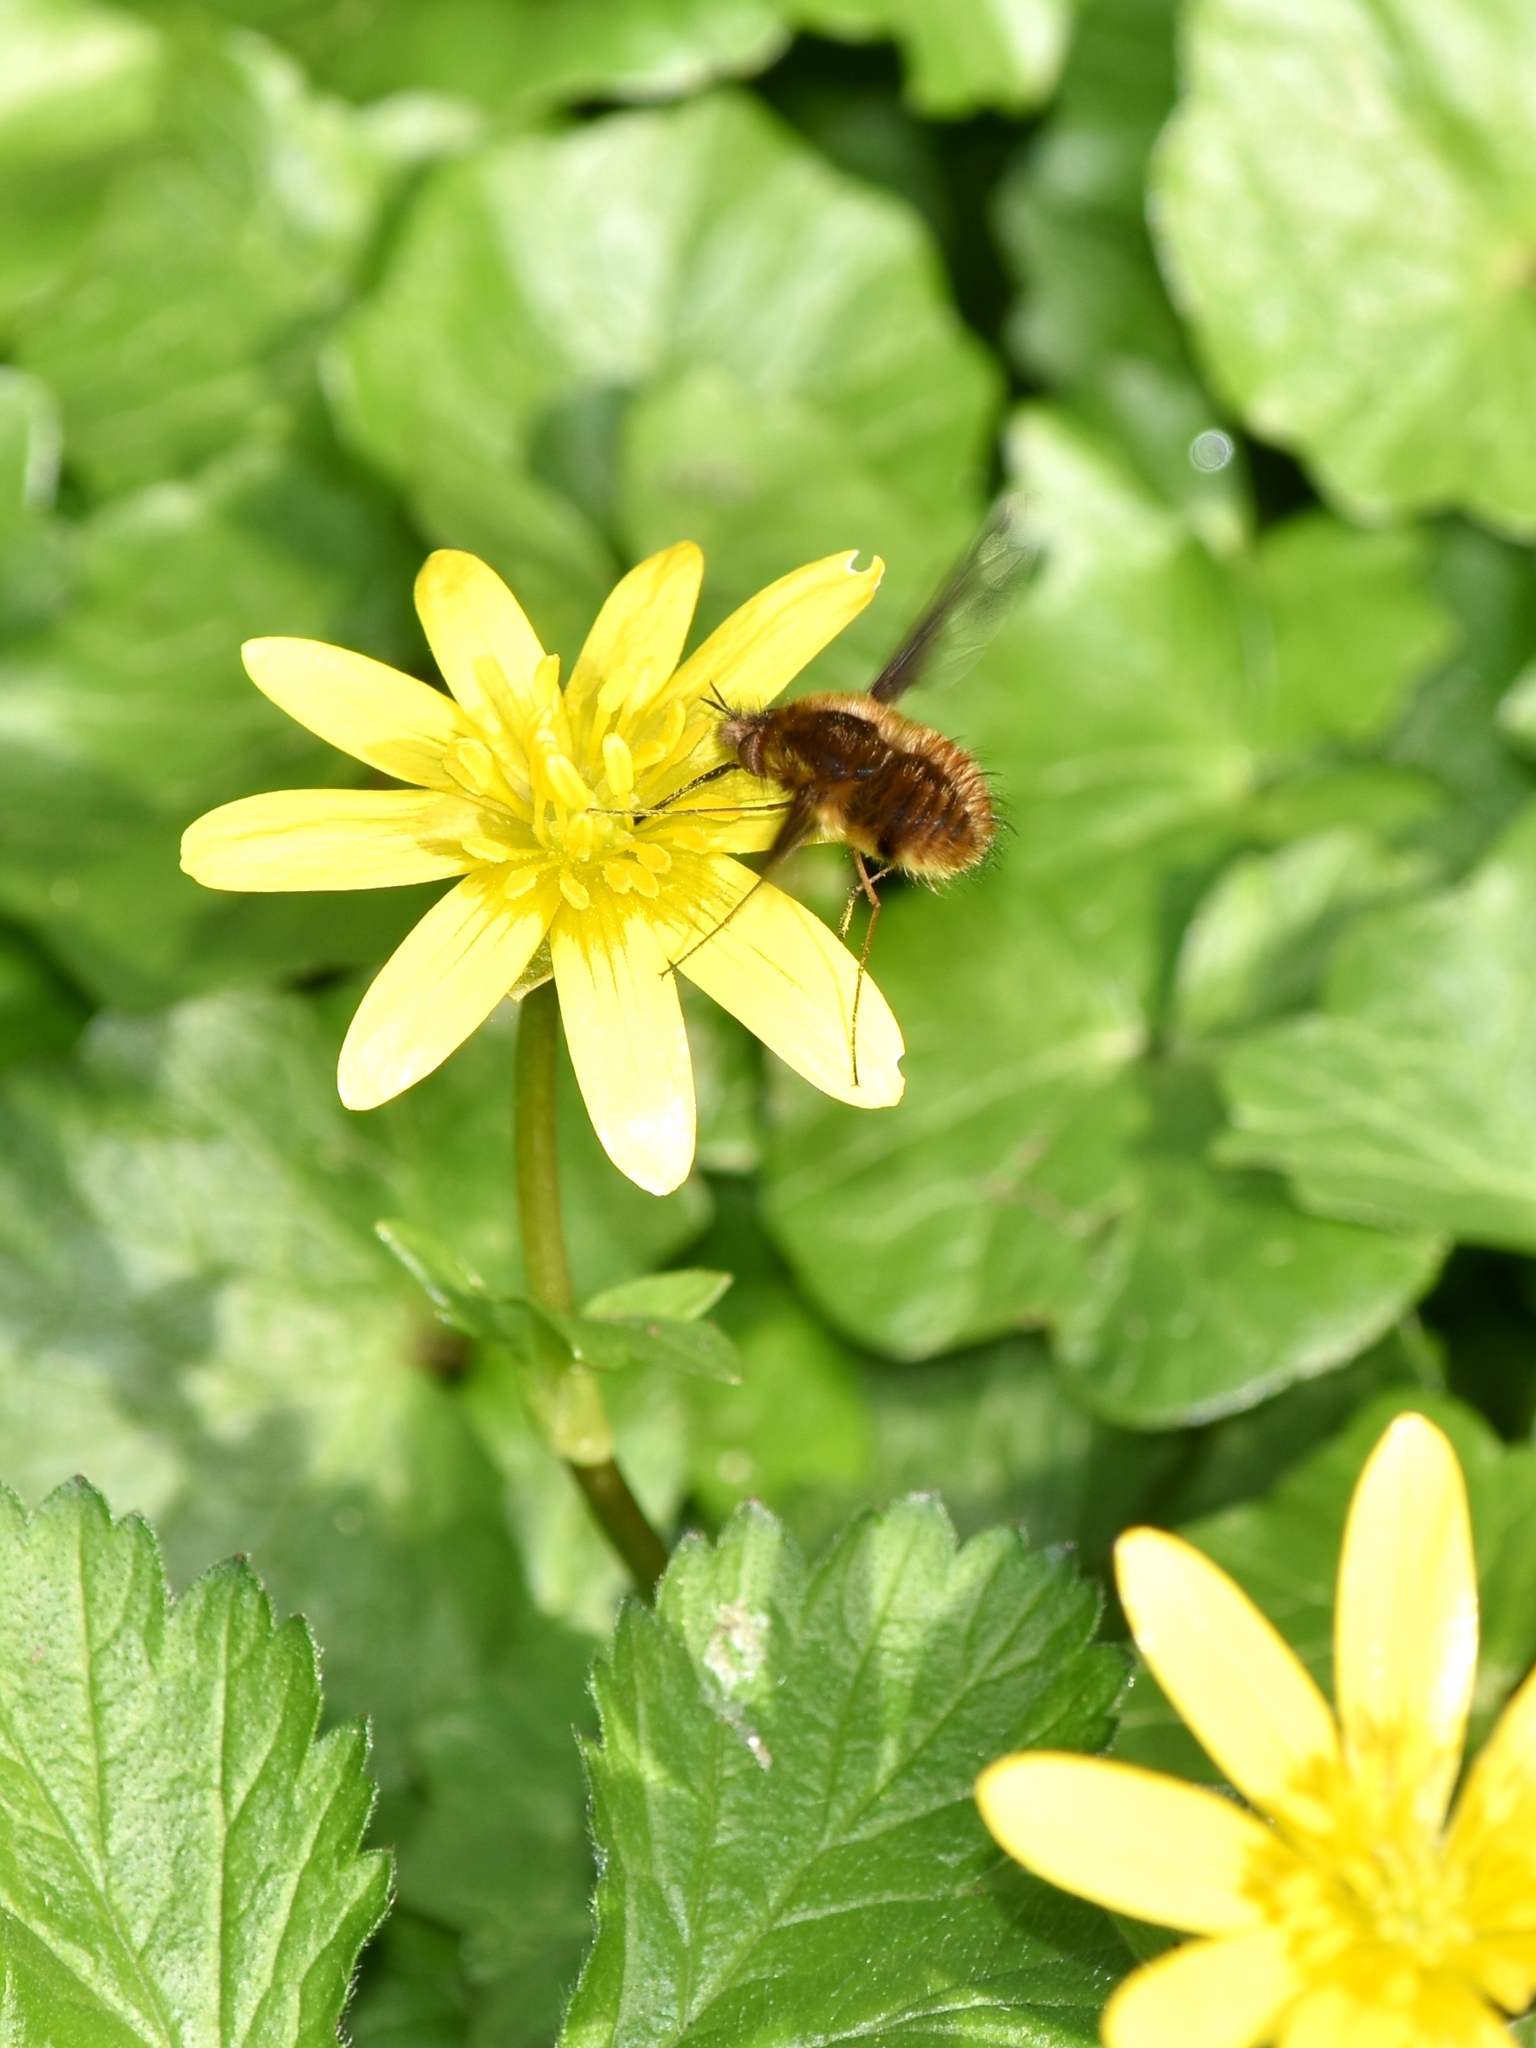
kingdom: Animalia
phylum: Arthropoda
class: Insecta
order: Diptera
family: Bombyliidae
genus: Bombylius
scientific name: Bombylius major
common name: Bee fly
